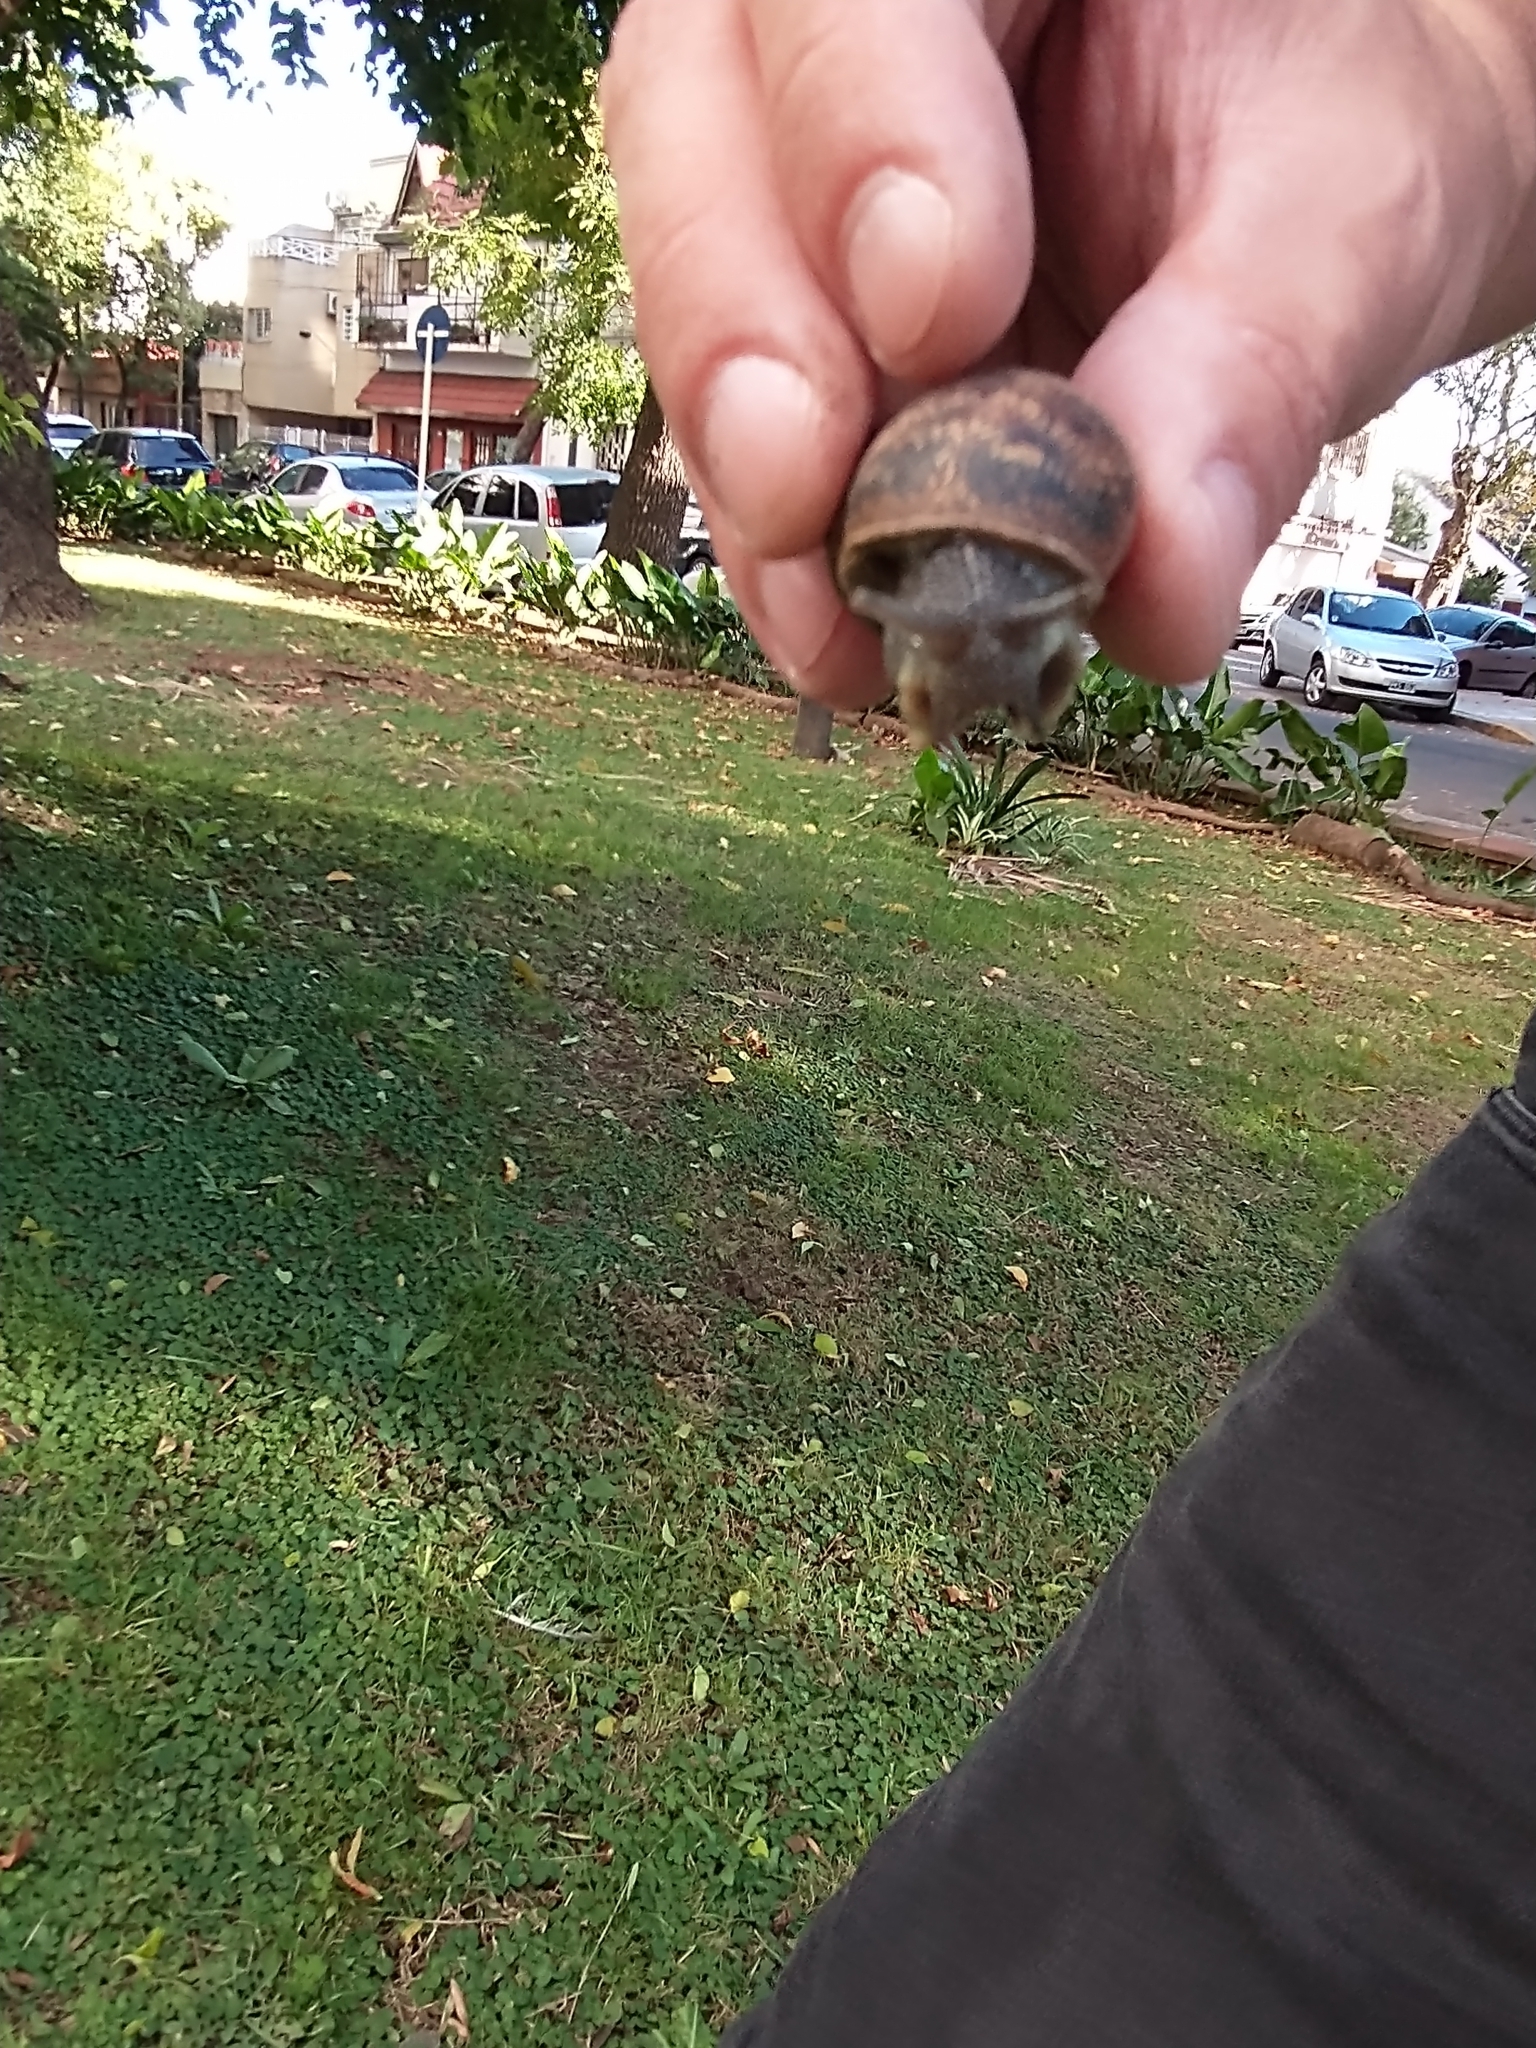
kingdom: Animalia
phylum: Mollusca
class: Gastropoda
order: Stylommatophora
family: Helicidae
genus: Cornu
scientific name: Cornu aspersum
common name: Brown garden snail
